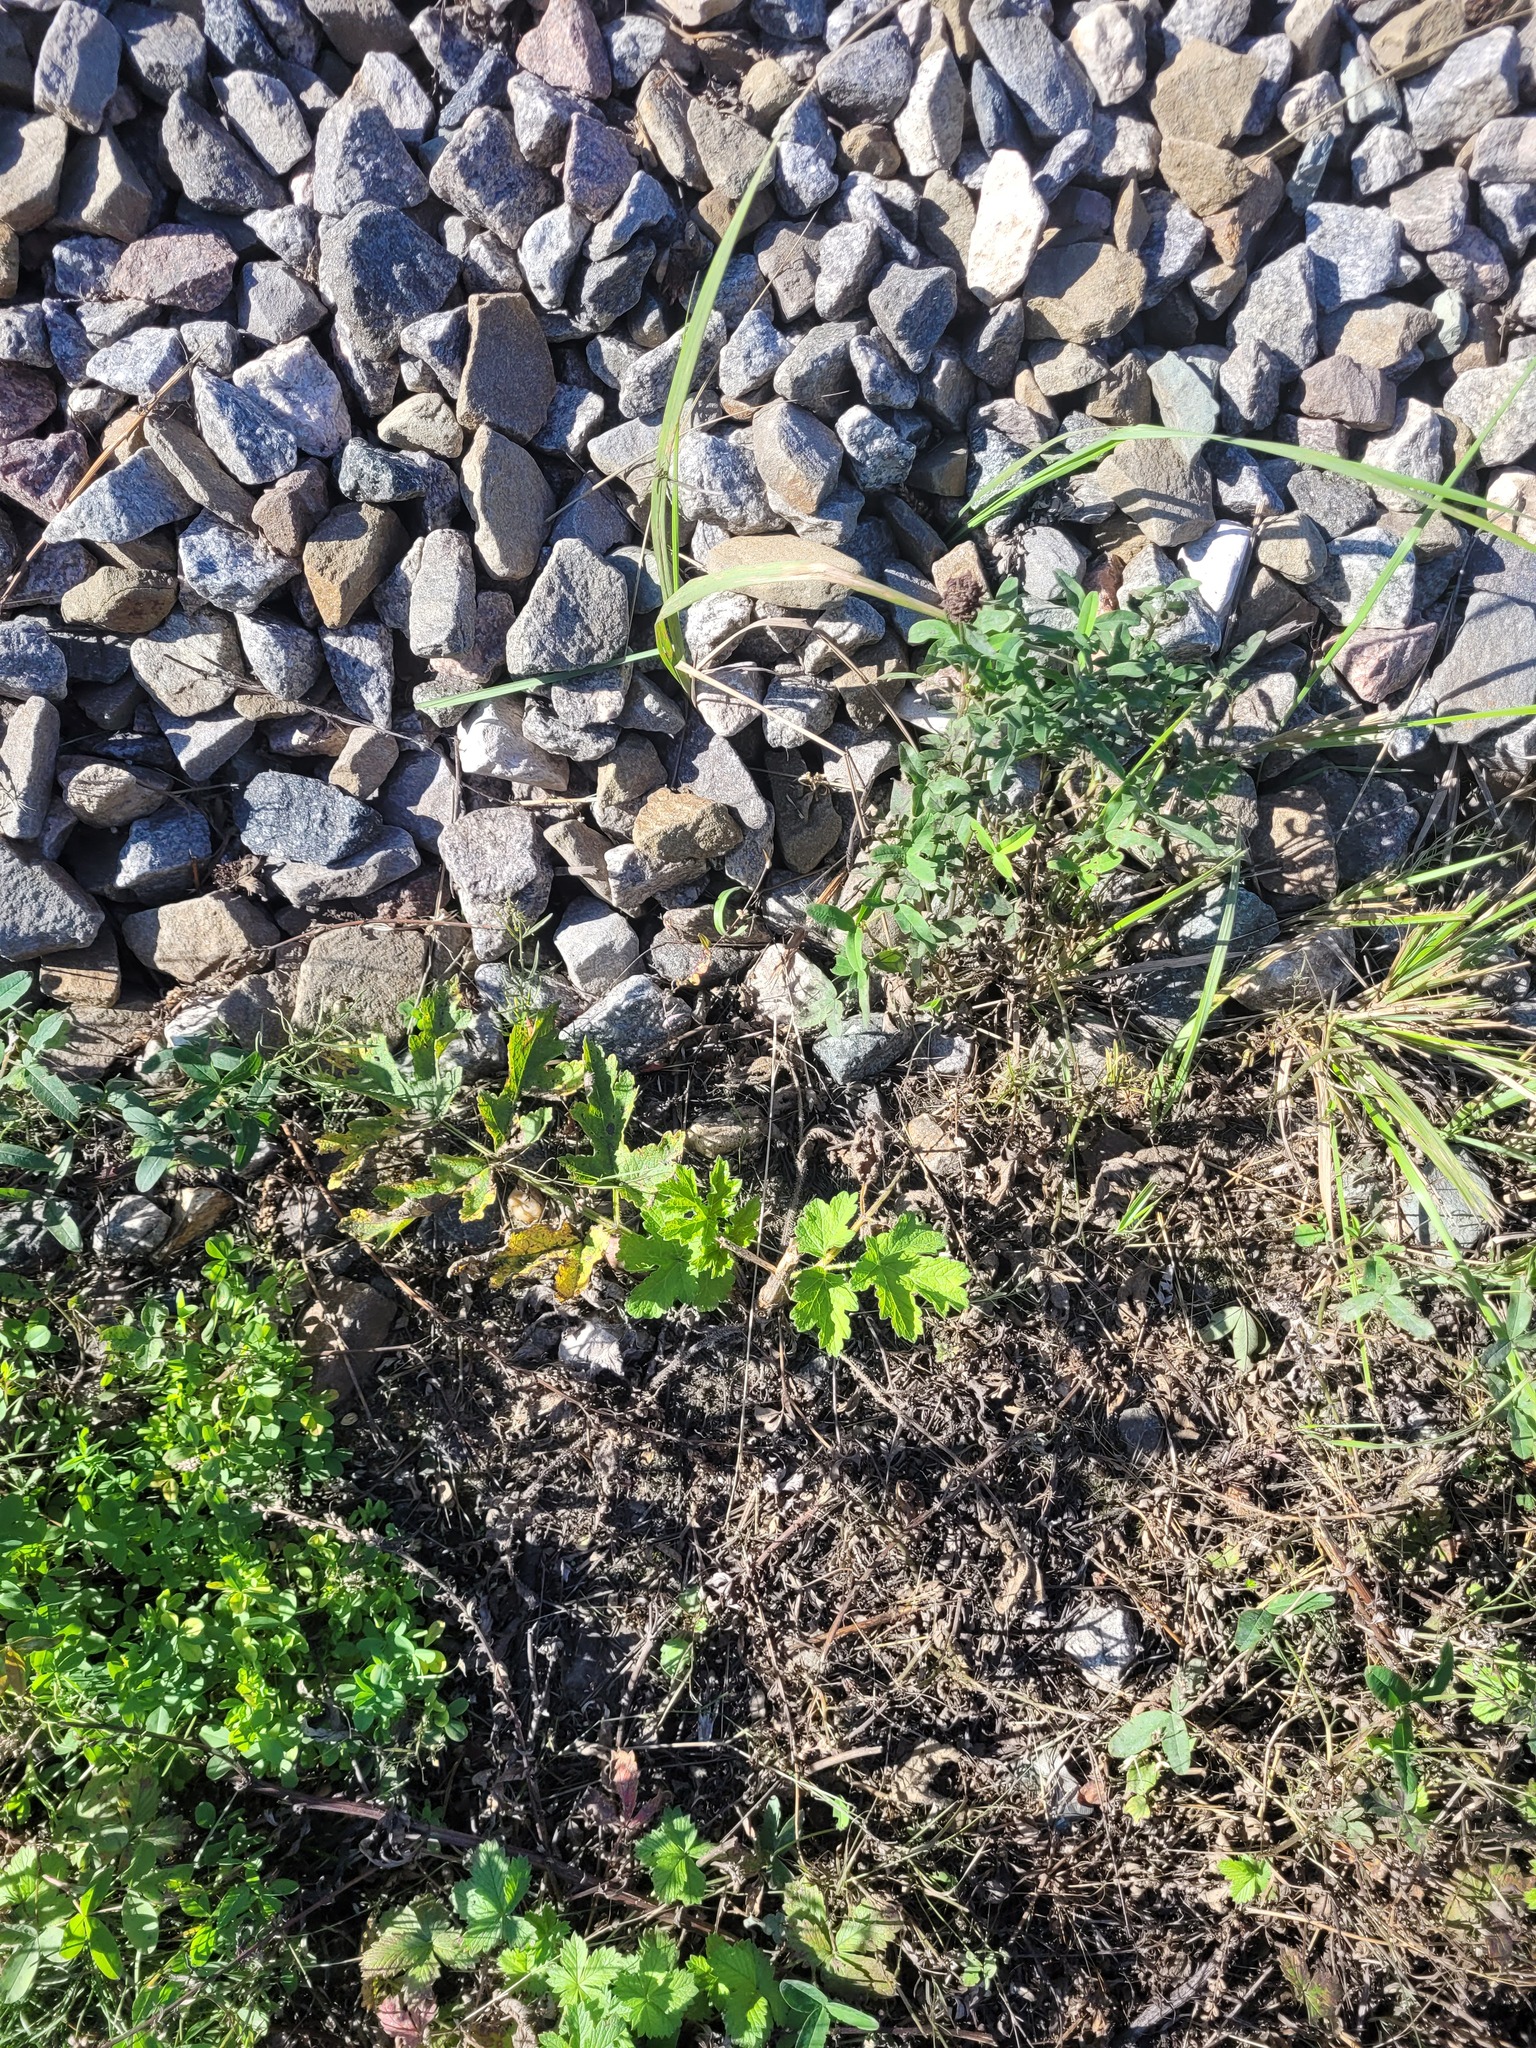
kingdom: Plantae
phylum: Tracheophyta
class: Magnoliopsida
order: Apiales
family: Apiaceae
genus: Heracleum
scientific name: Heracleum sphondylium
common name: Hogweed
